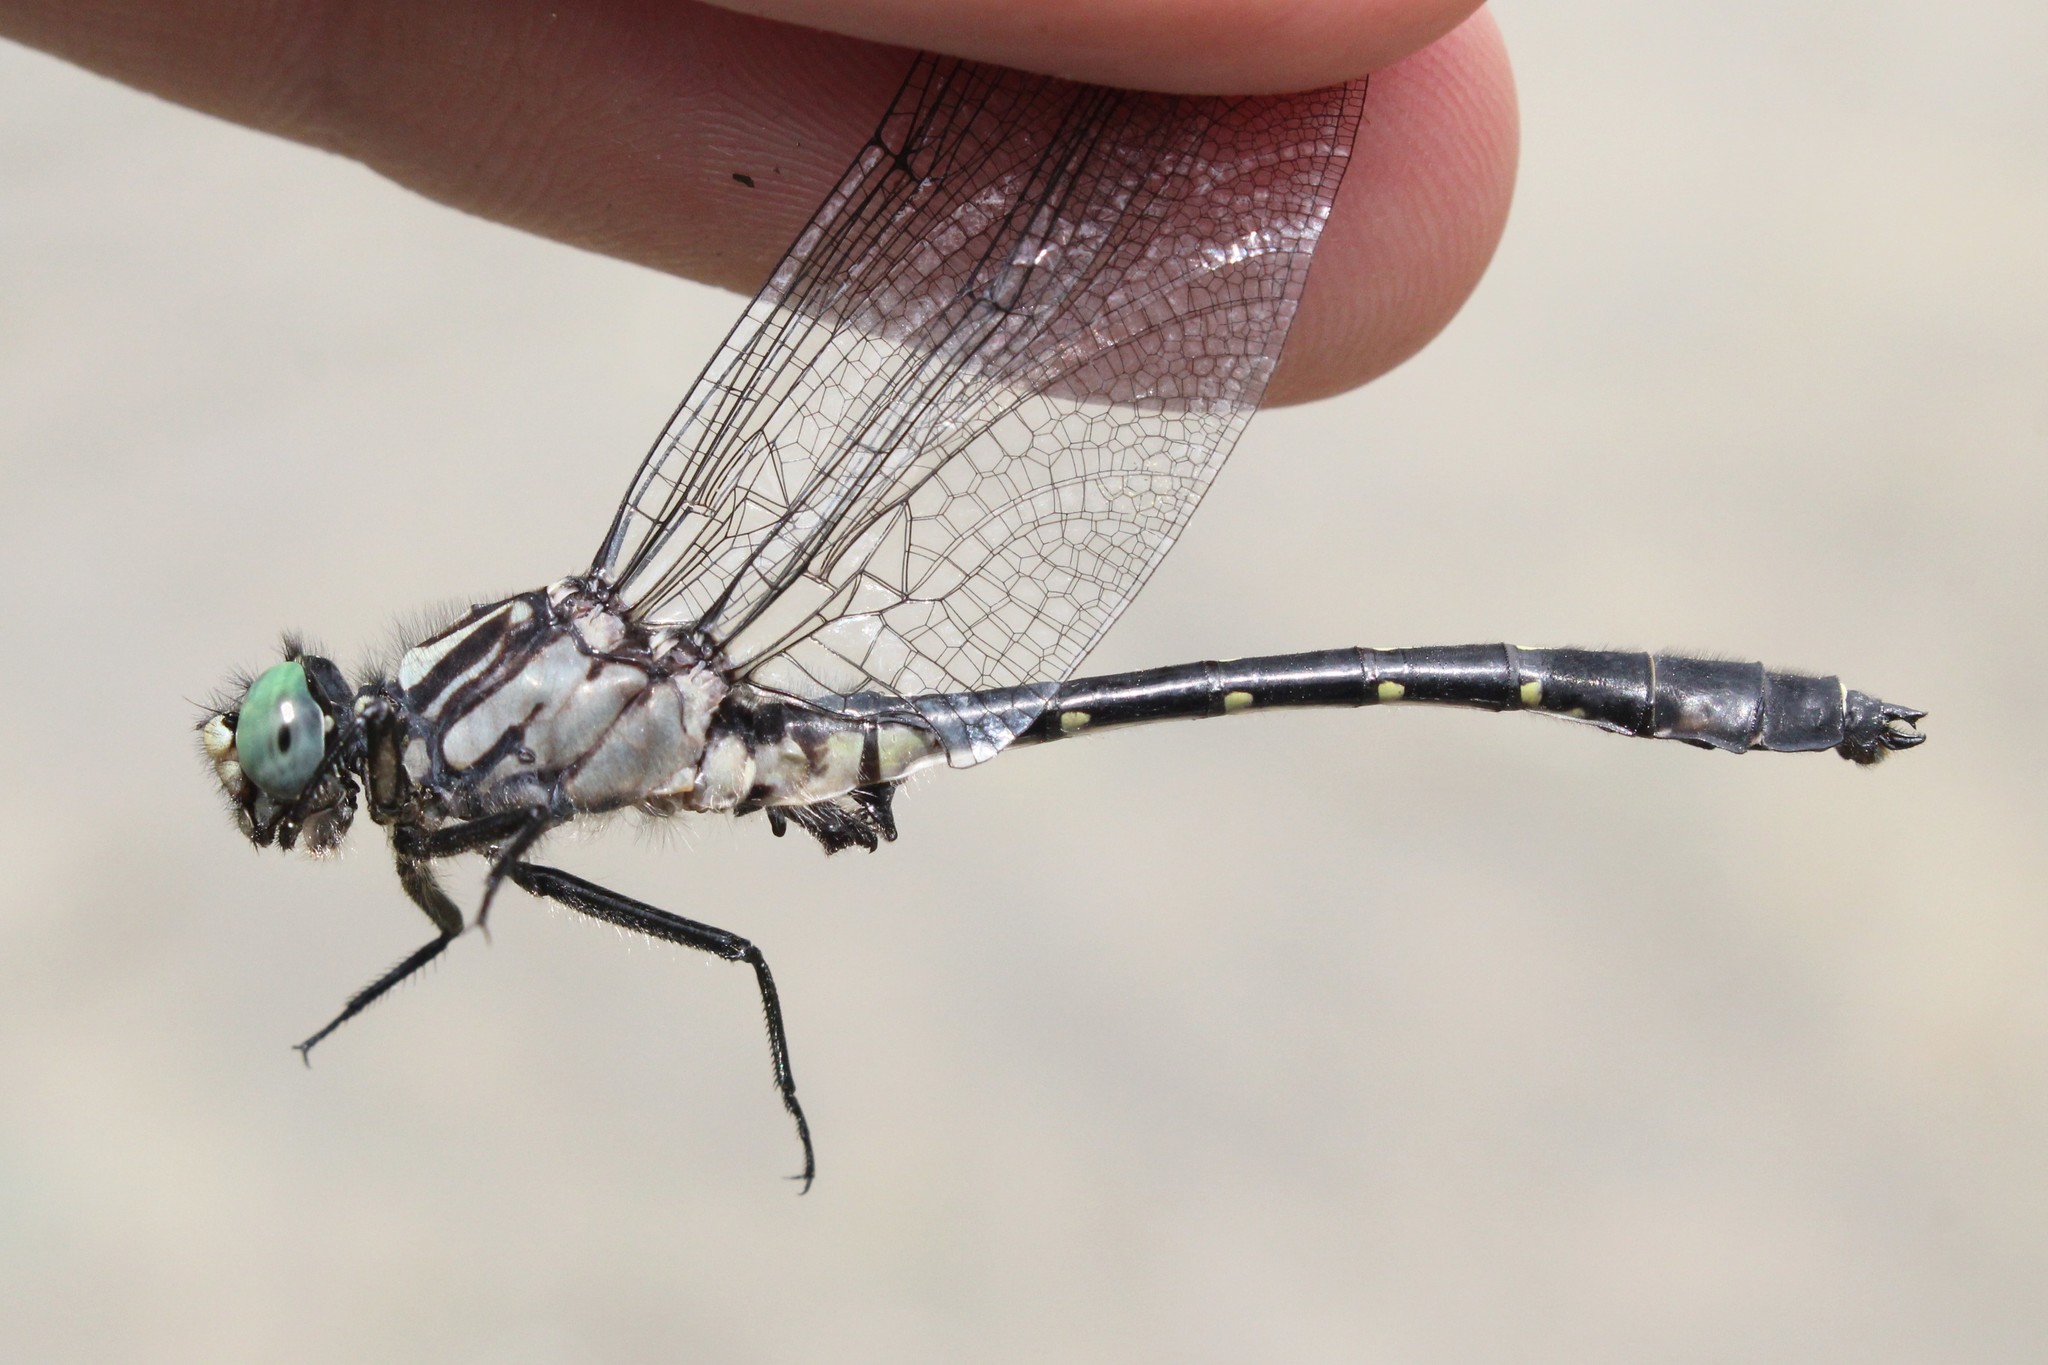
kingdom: Animalia
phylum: Arthropoda
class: Insecta
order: Odonata
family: Gomphidae
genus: Hylogomphus
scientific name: Hylogomphus viridifrons
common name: Green-faced clubtail
